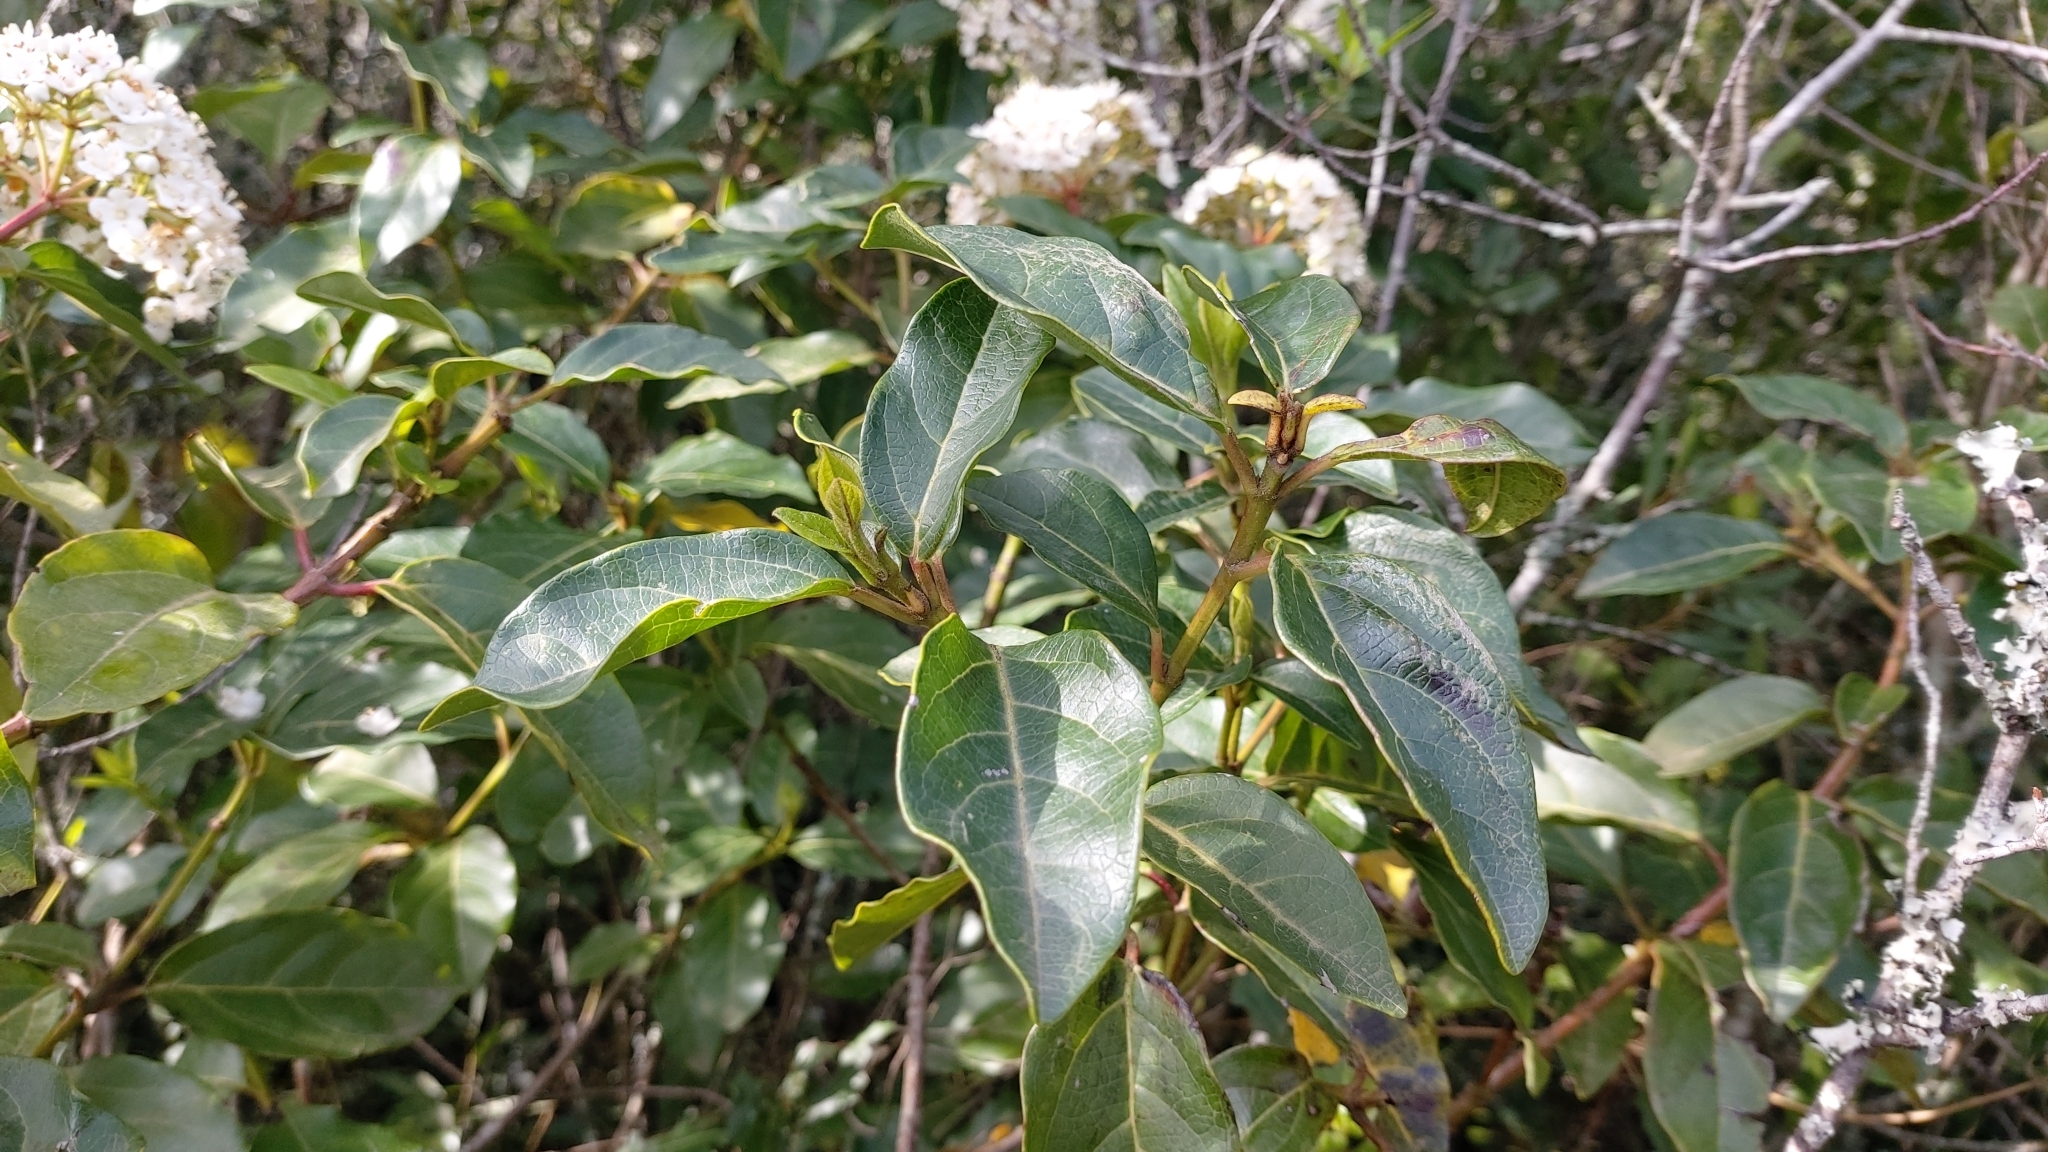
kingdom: Plantae
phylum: Tracheophyta
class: Magnoliopsida
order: Dipsacales
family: Viburnaceae
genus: Viburnum
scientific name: Viburnum tinus
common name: Laurustinus
